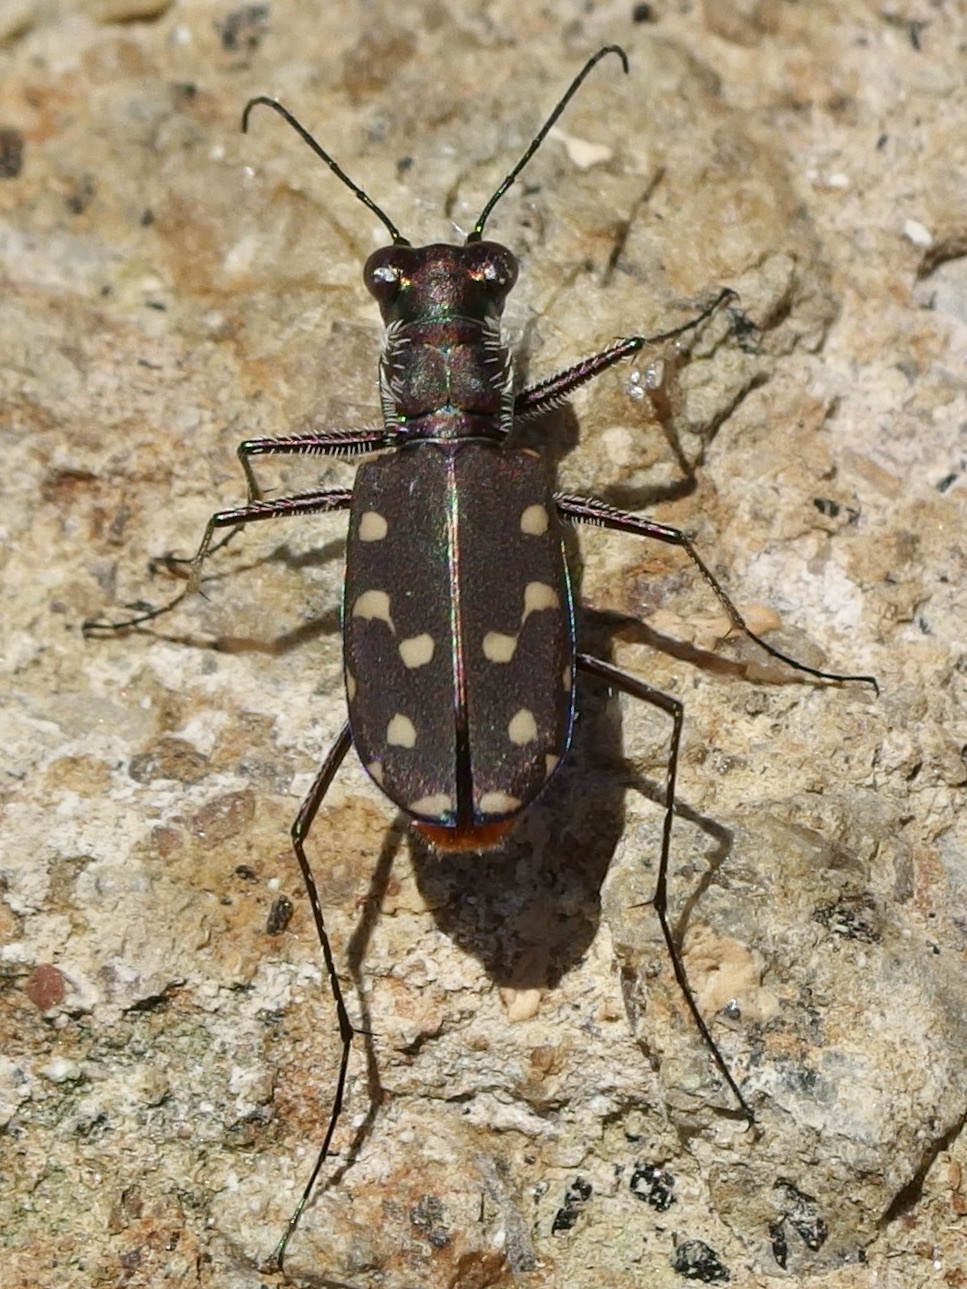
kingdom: Animalia
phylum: Arthropoda
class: Insecta
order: Coleoptera
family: Carabidae
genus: Cicindela
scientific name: Cicindela sedecimpunctata
